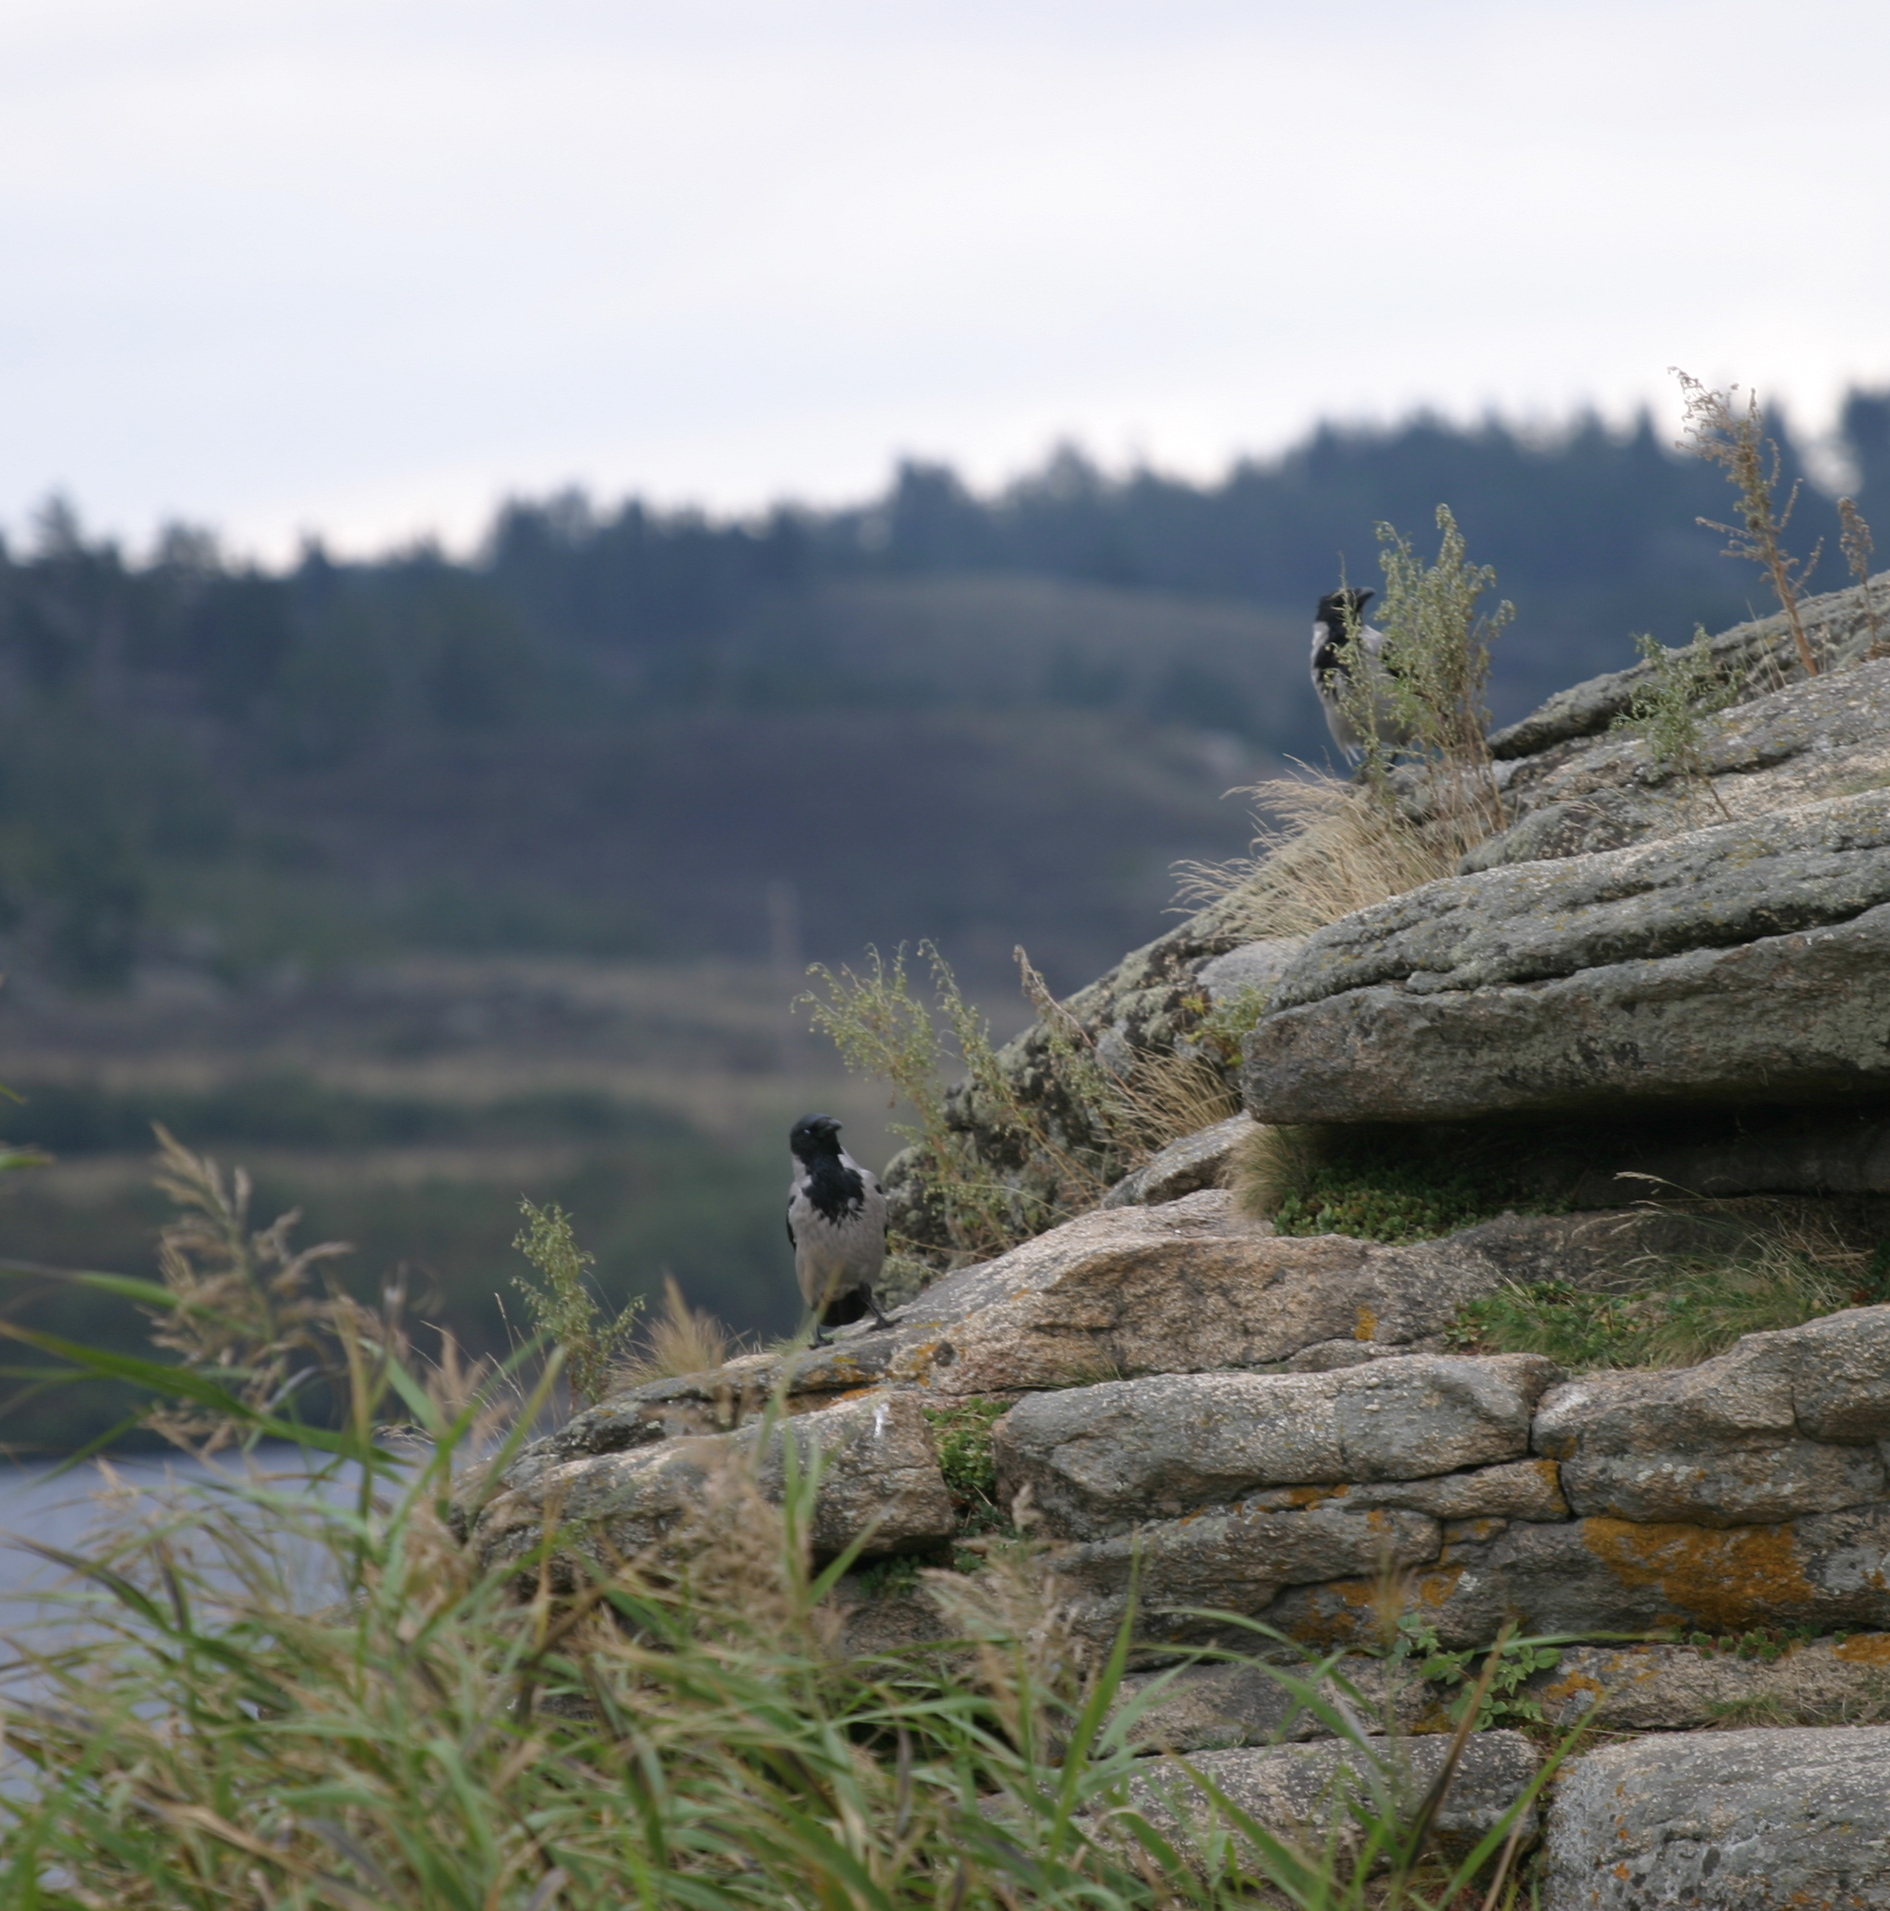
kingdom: Animalia
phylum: Chordata
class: Aves
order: Passeriformes
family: Corvidae
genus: Corvus
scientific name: Corvus cornix
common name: Hooded crow
